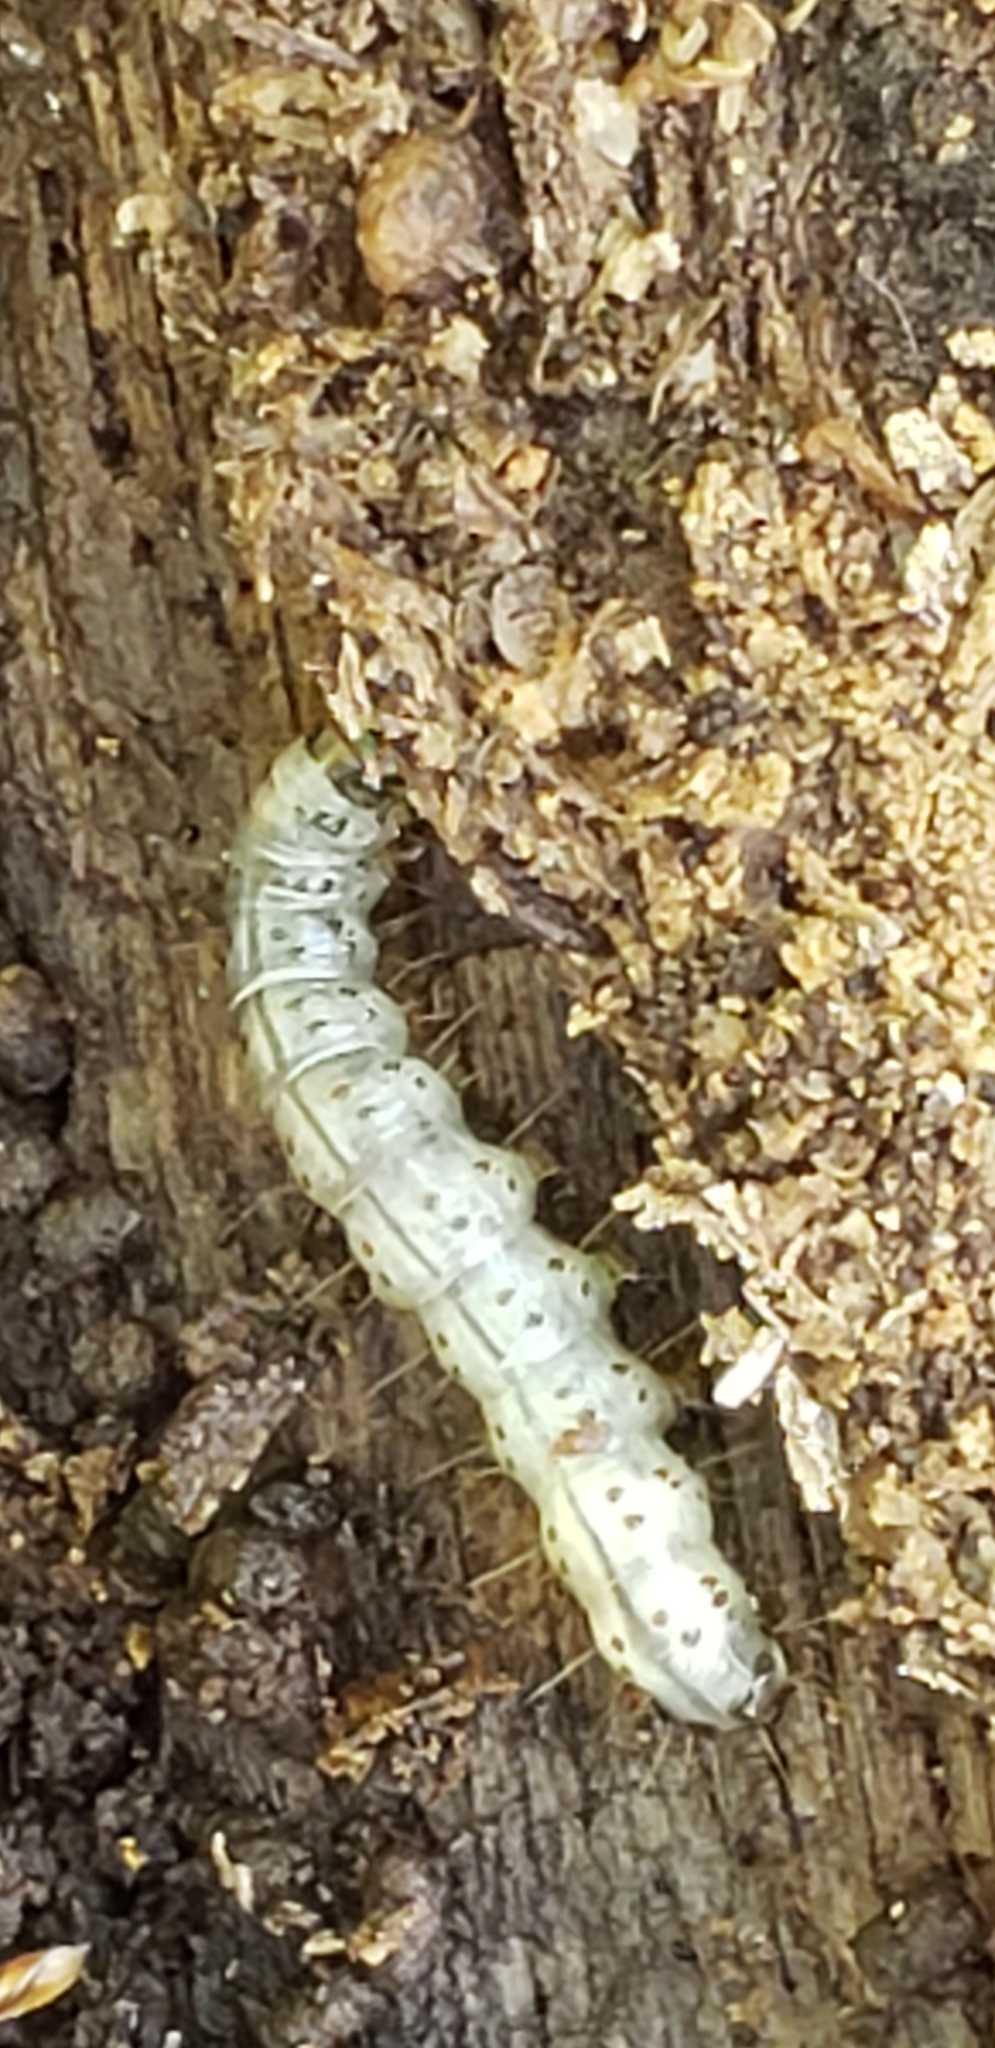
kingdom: Animalia
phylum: Arthropoda
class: Insecta
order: Lepidoptera
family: Erebidae
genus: Scolecocampa
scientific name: Scolecocampa liburna
